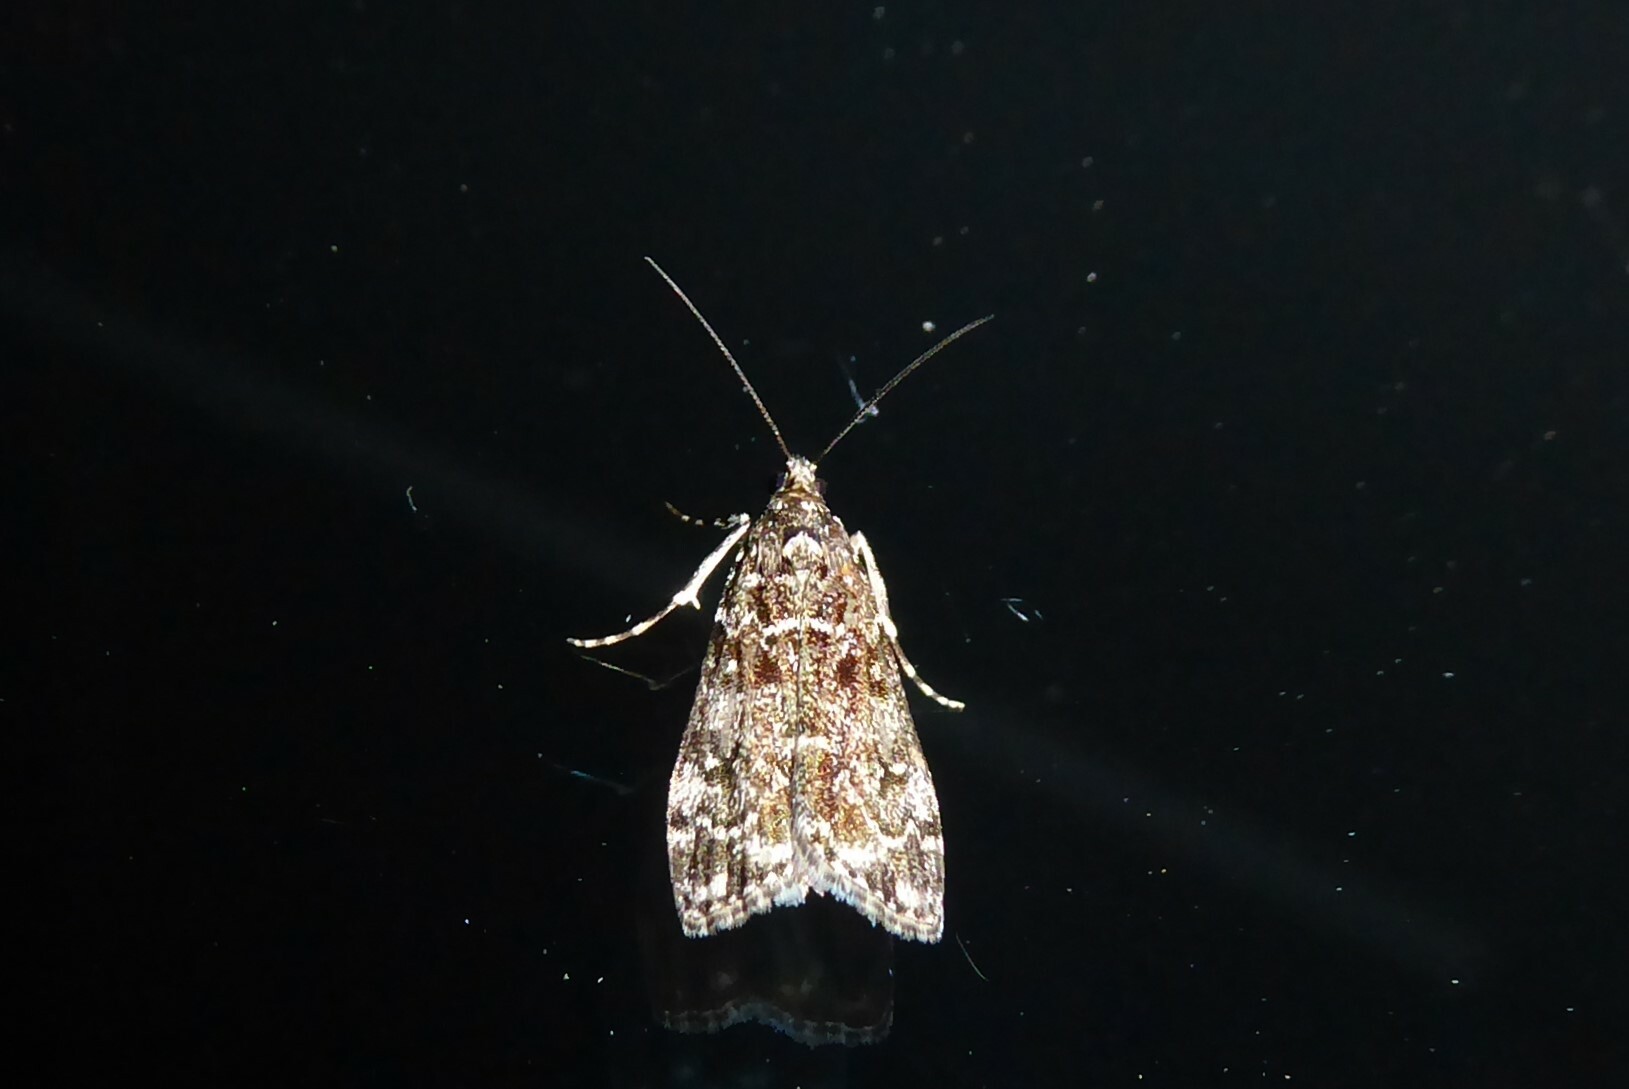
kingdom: Animalia
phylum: Arthropoda
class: Insecta
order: Lepidoptera
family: Crambidae
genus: Eudonia
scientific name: Eudonia philerga
